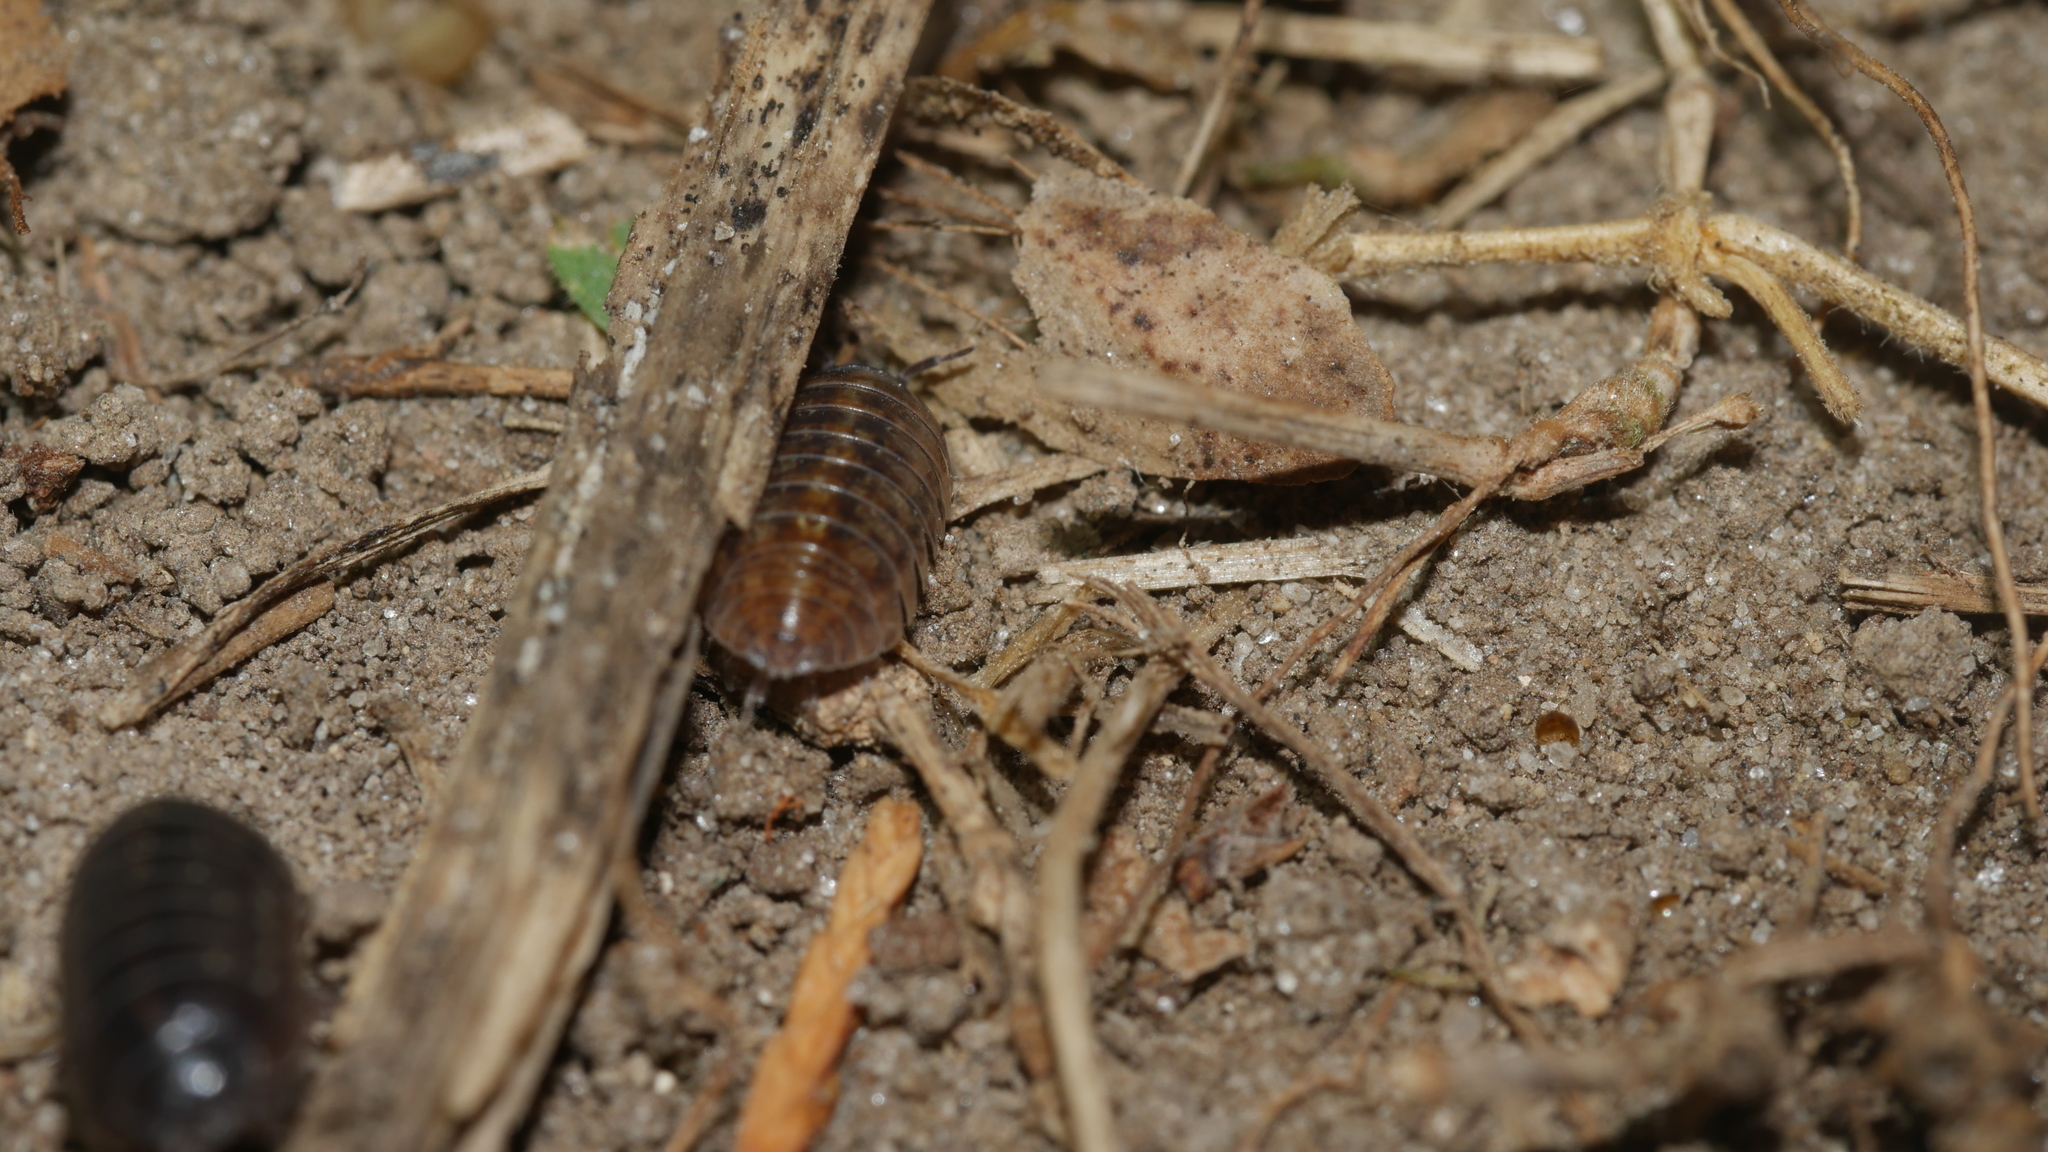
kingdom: Animalia
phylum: Arthropoda
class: Malacostraca
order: Isopoda
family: Armadillidiidae
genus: Armadillidium
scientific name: Armadillidium vulgare
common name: Common pill woodlouse
